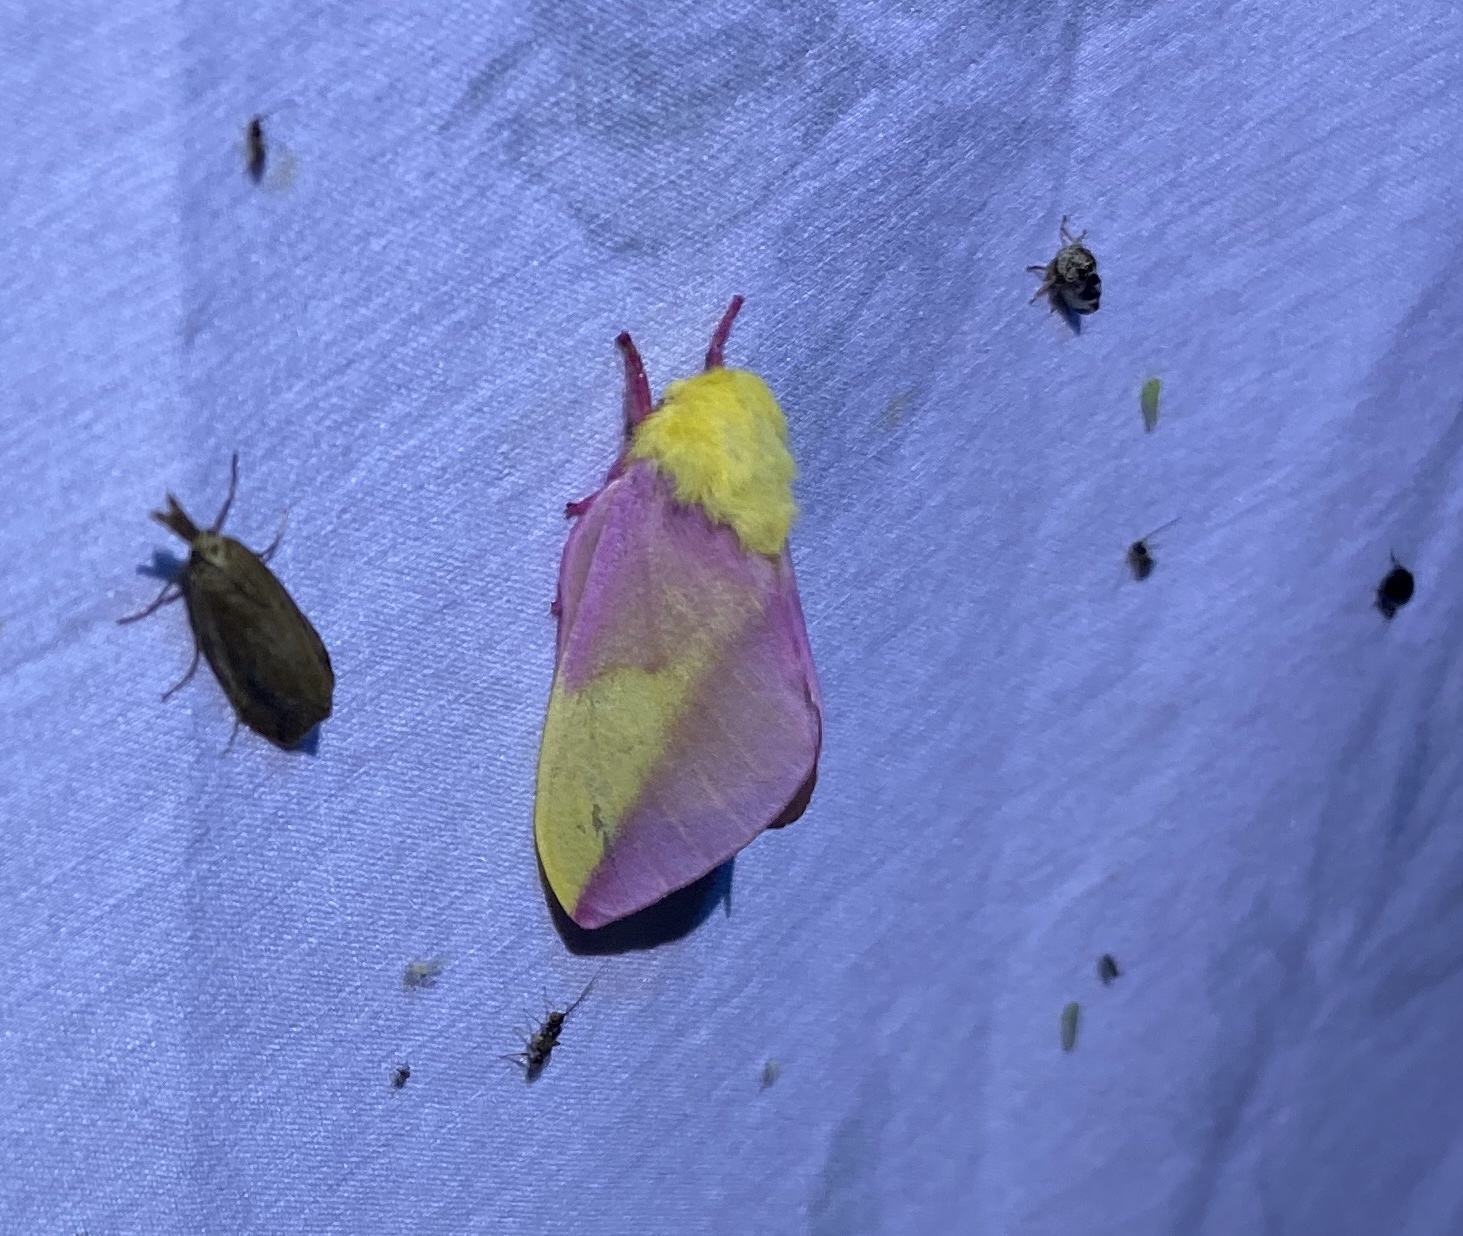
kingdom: Animalia
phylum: Arthropoda
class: Insecta
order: Lepidoptera
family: Saturniidae
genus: Dryocampa
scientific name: Dryocampa rubicunda
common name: Rosy maple moth
